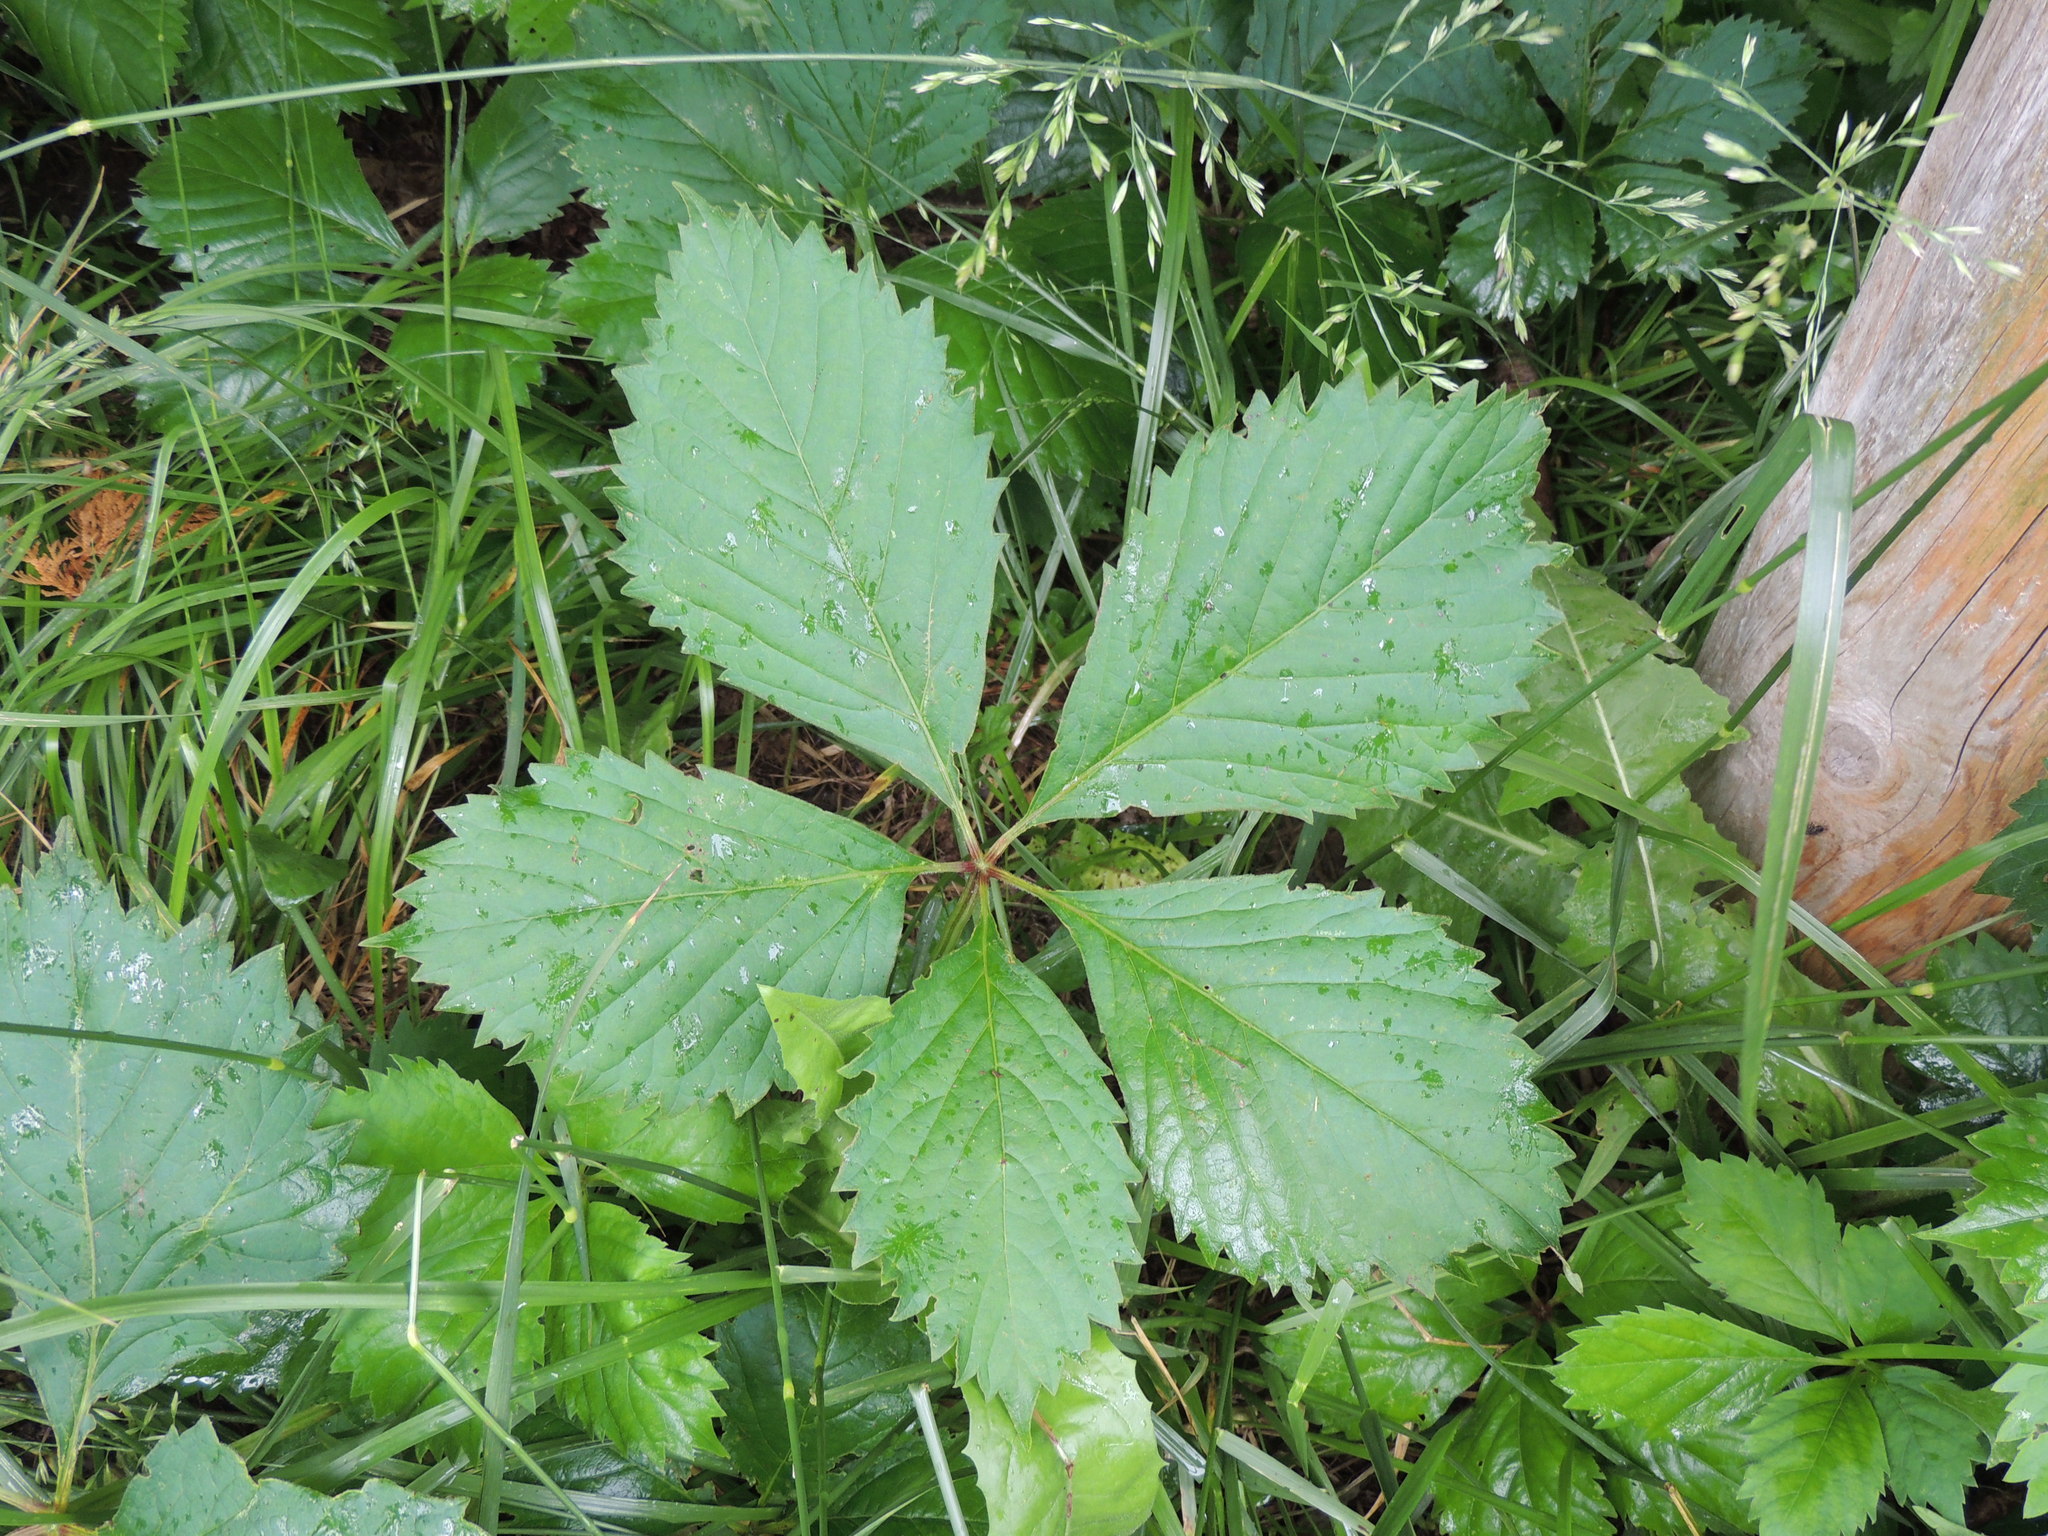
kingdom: Plantae
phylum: Tracheophyta
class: Magnoliopsida
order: Vitales
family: Vitaceae
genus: Parthenocissus
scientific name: Parthenocissus quinquefolia
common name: Virginia-creeper
